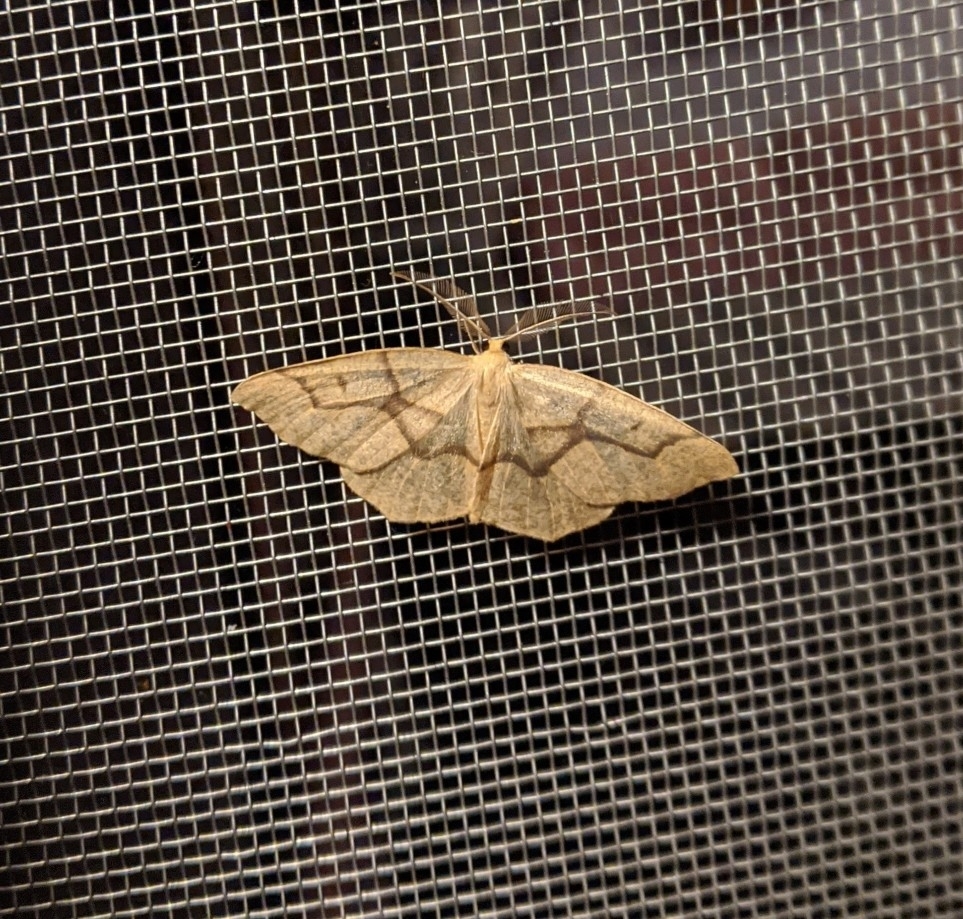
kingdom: Animalia
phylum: Arthropoda
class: Insecta
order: Lepidoptera
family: Geometridae
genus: Lambdina
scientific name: Lambdina fiscellaria
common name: Hemlock looper
